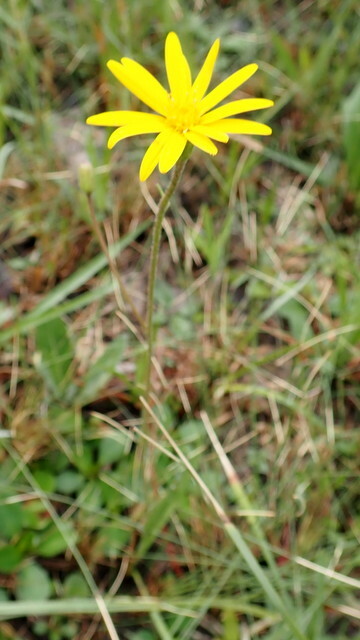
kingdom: Plantae
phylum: Tracheophyta
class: Magnoliopsida
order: Asterales
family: Asteraceae
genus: Pityopsis
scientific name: Pityopsis oligantha
